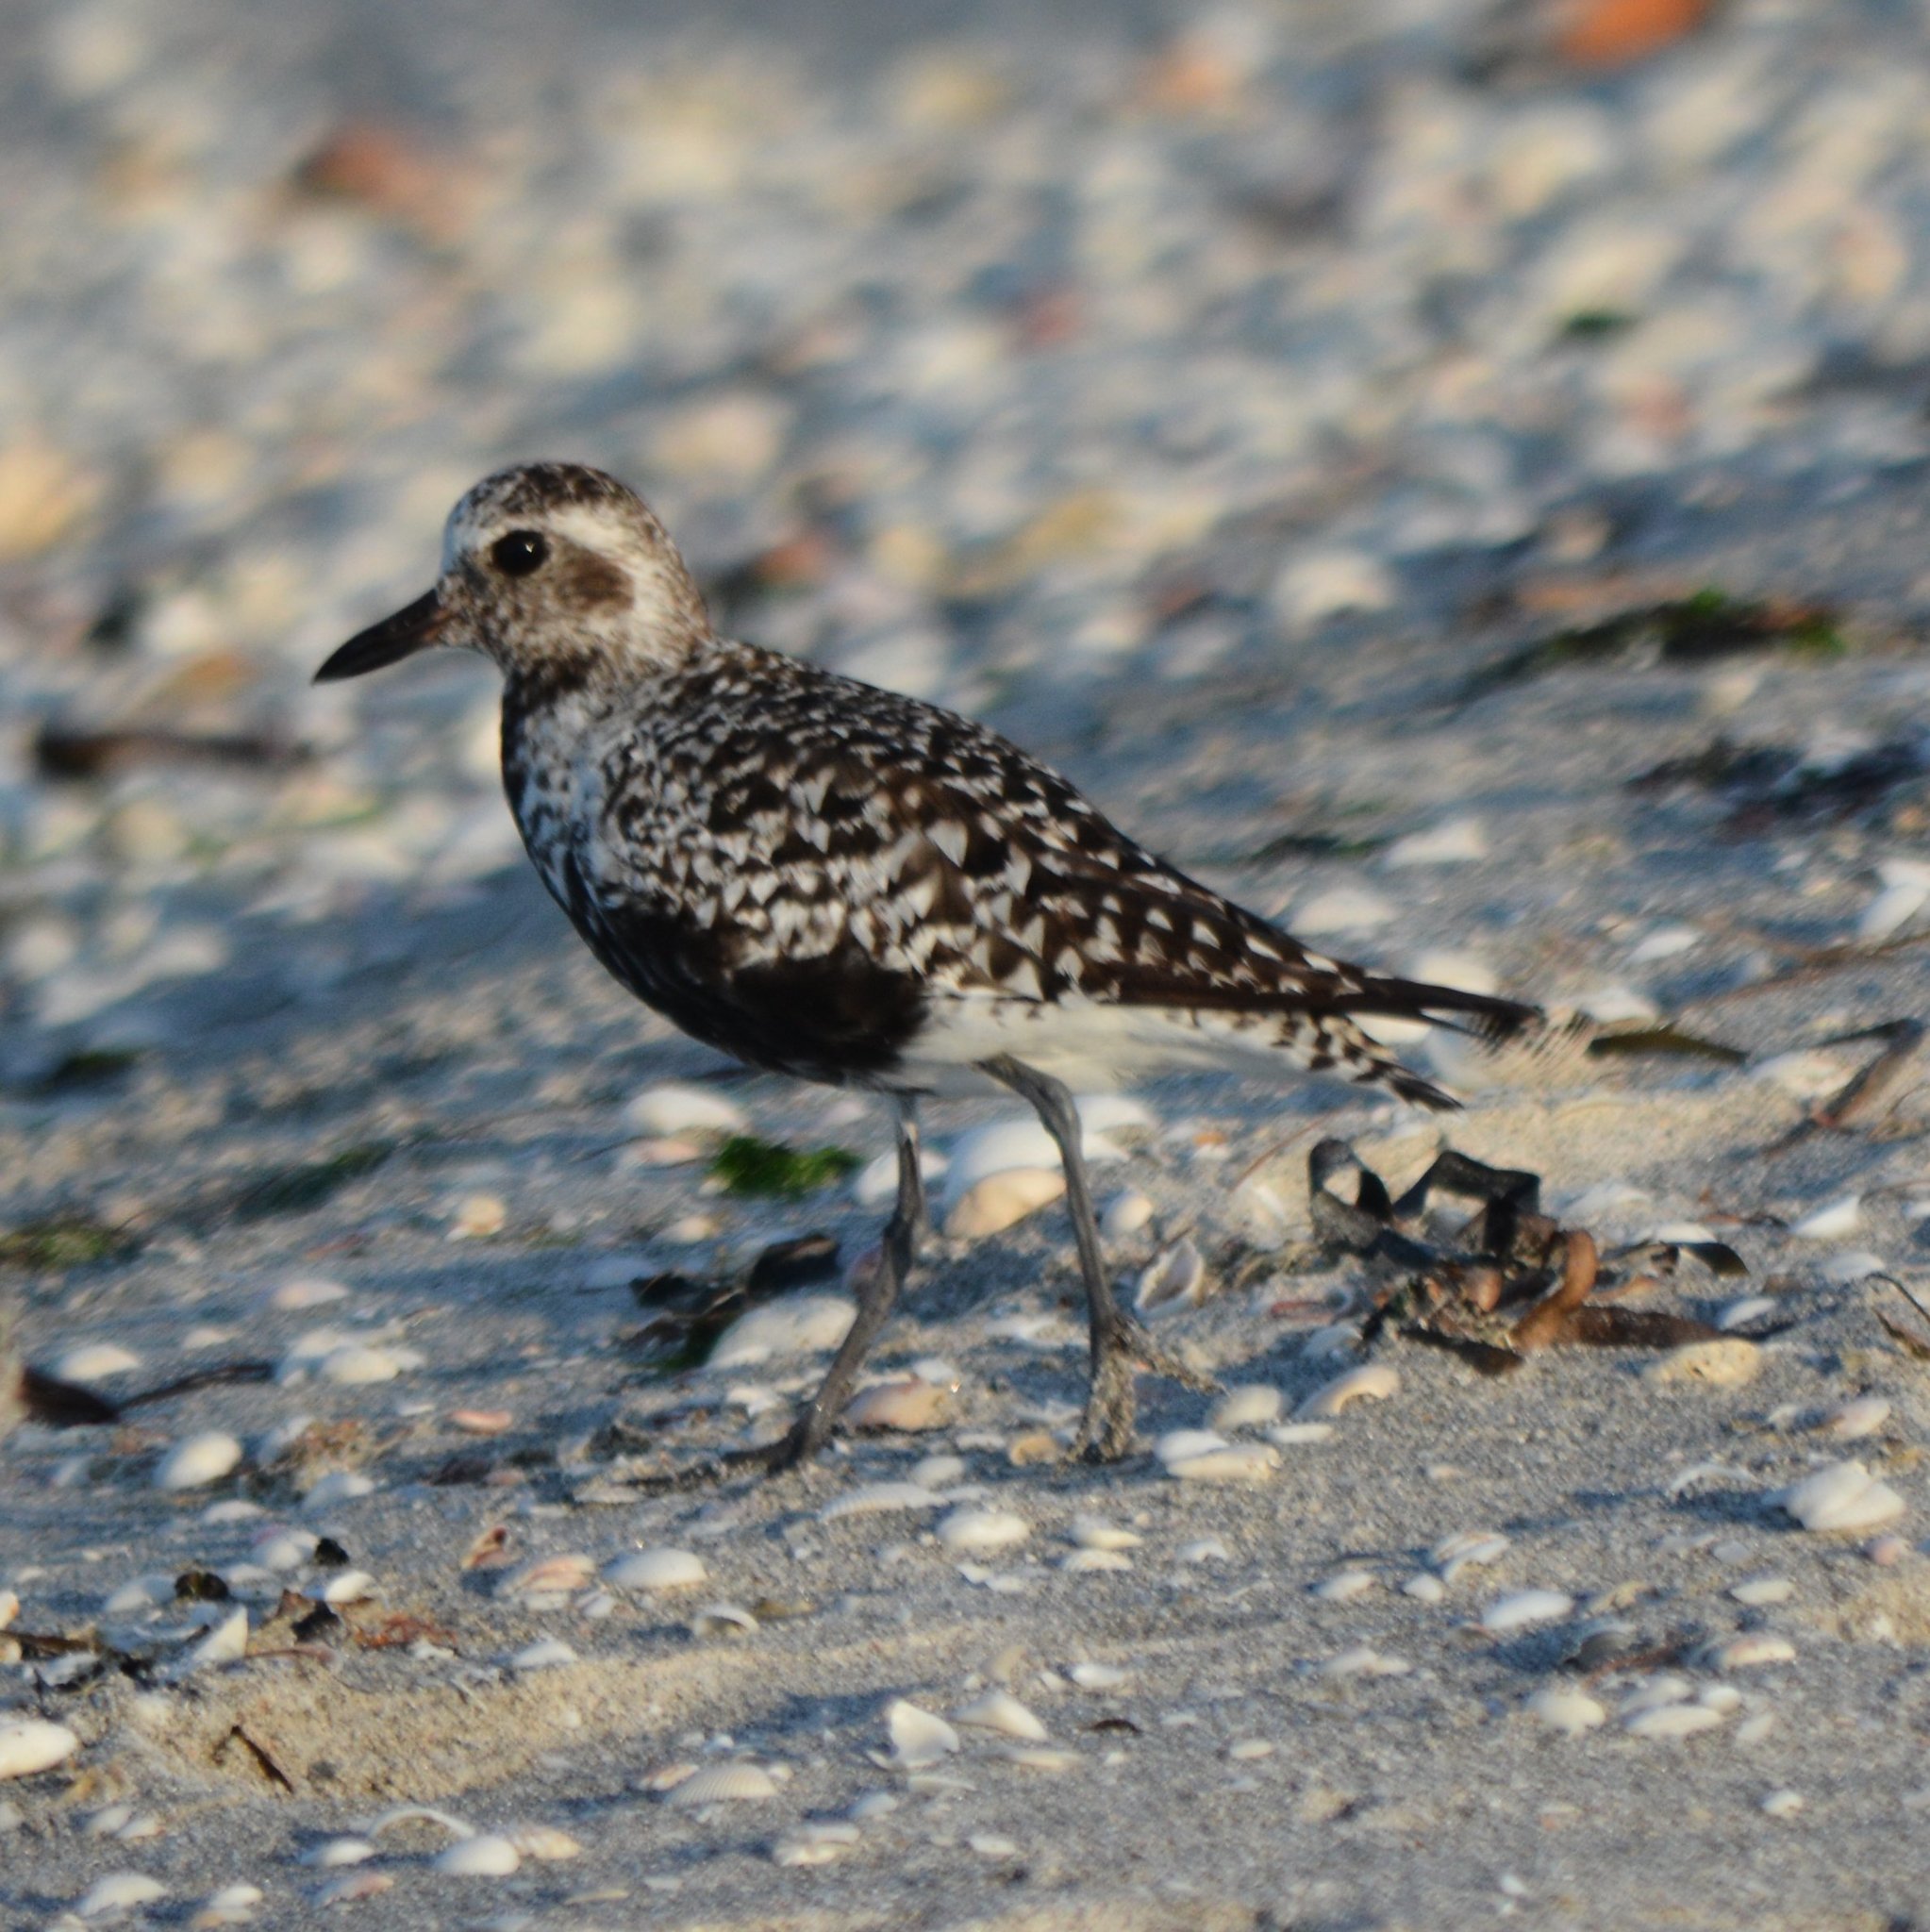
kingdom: Animalia
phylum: Chordata
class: Aves
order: Charadriiformes
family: Charadriidae
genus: Pluvialis
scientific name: Pluvialis squatarola
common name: Grey plover
